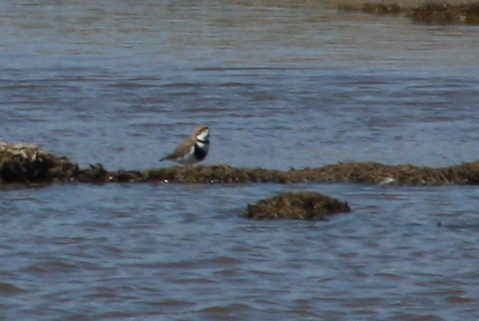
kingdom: Animalia
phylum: Chordata
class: Aves
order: Charadriiformes
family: Charadriidae
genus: Anarhynchus
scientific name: Anarhynchus
